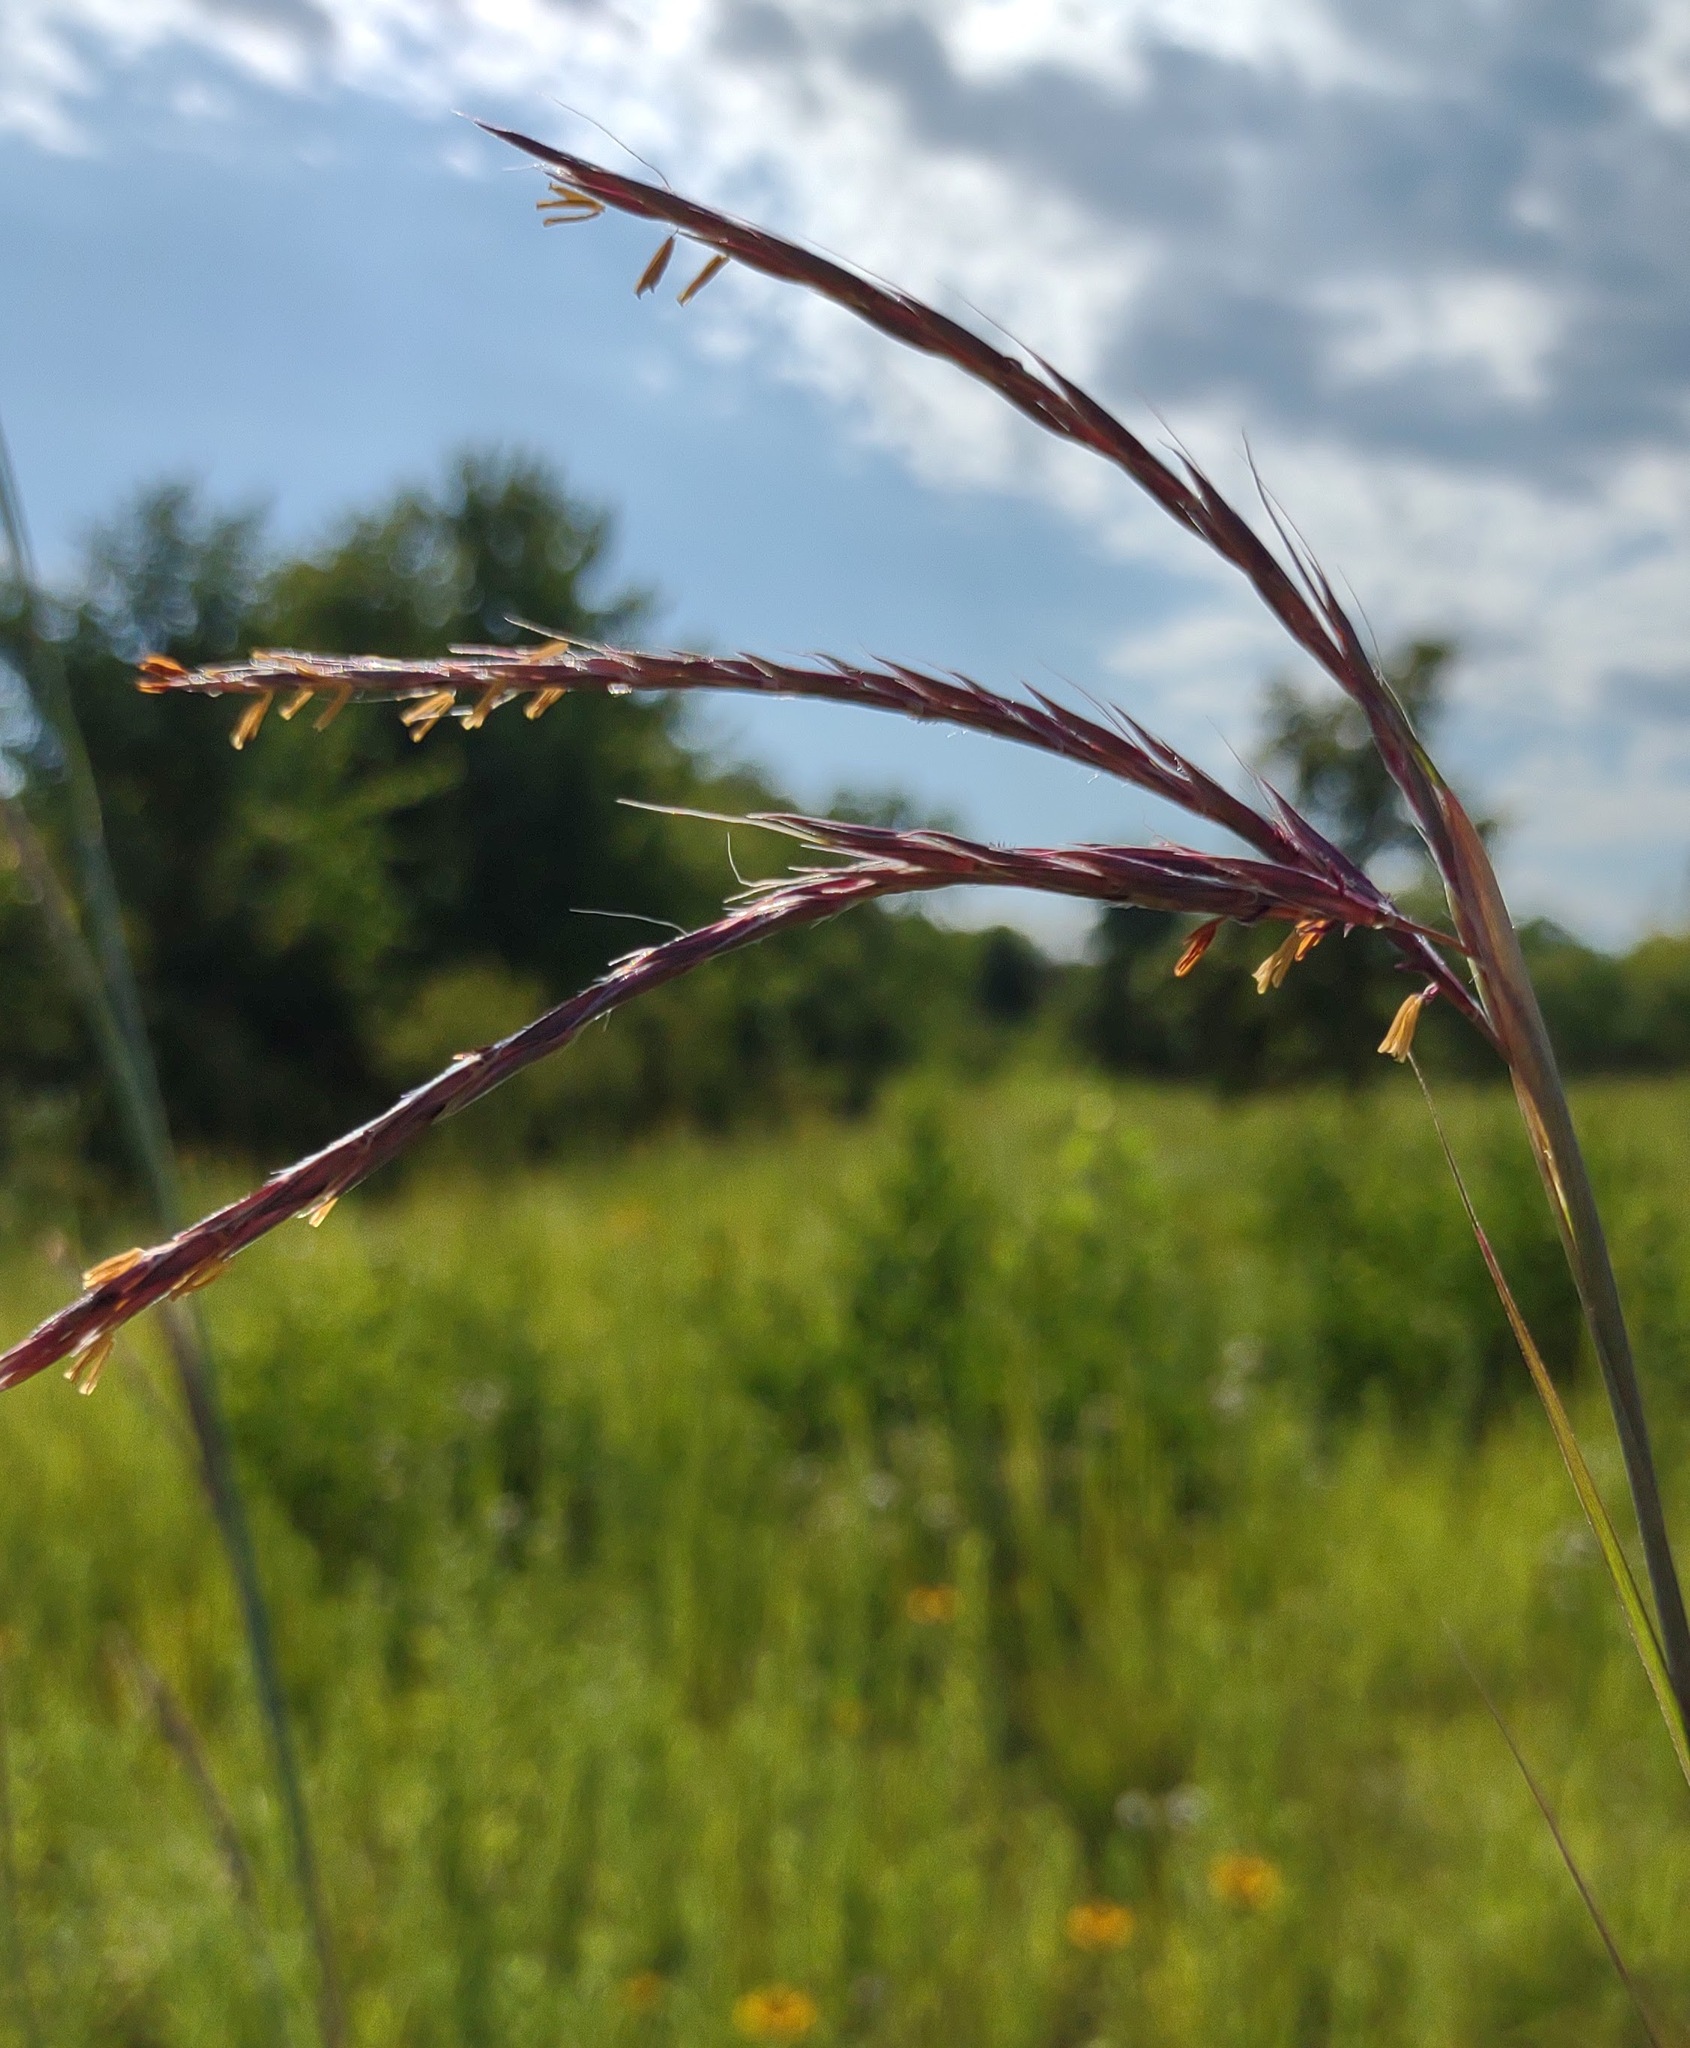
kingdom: Plantae
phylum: Tracheophyta
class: Liliopsida
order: Poales
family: Poaceae
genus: Andropogon
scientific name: Andropogon gerardi
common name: Big bluestem
